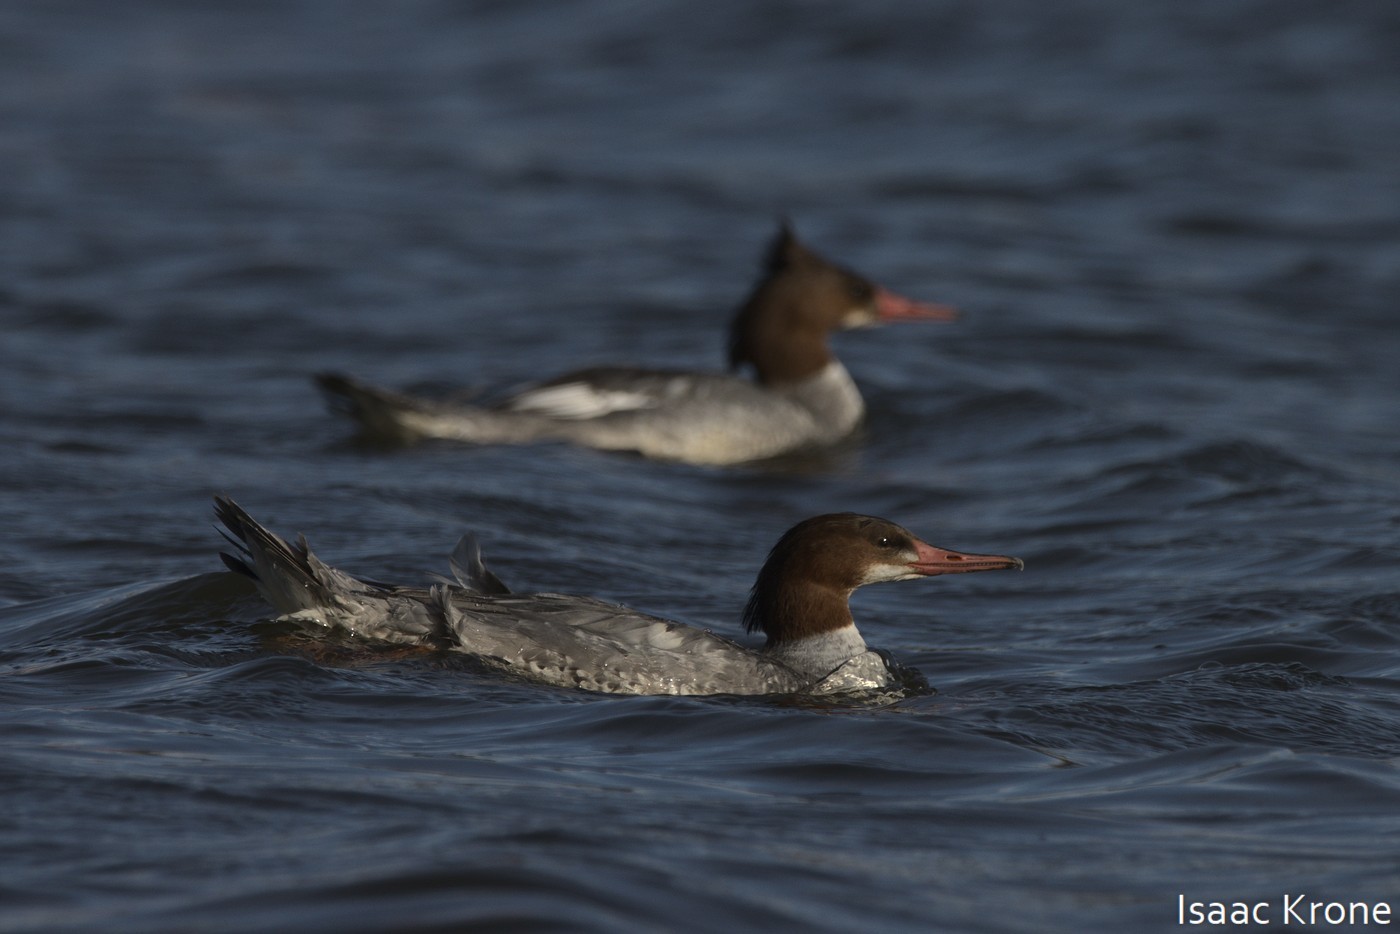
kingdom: Animalia
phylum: Chordata
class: Aves
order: Anseriformes
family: Anatidae
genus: Mergus
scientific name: Mergus merganser
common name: Common merganser
